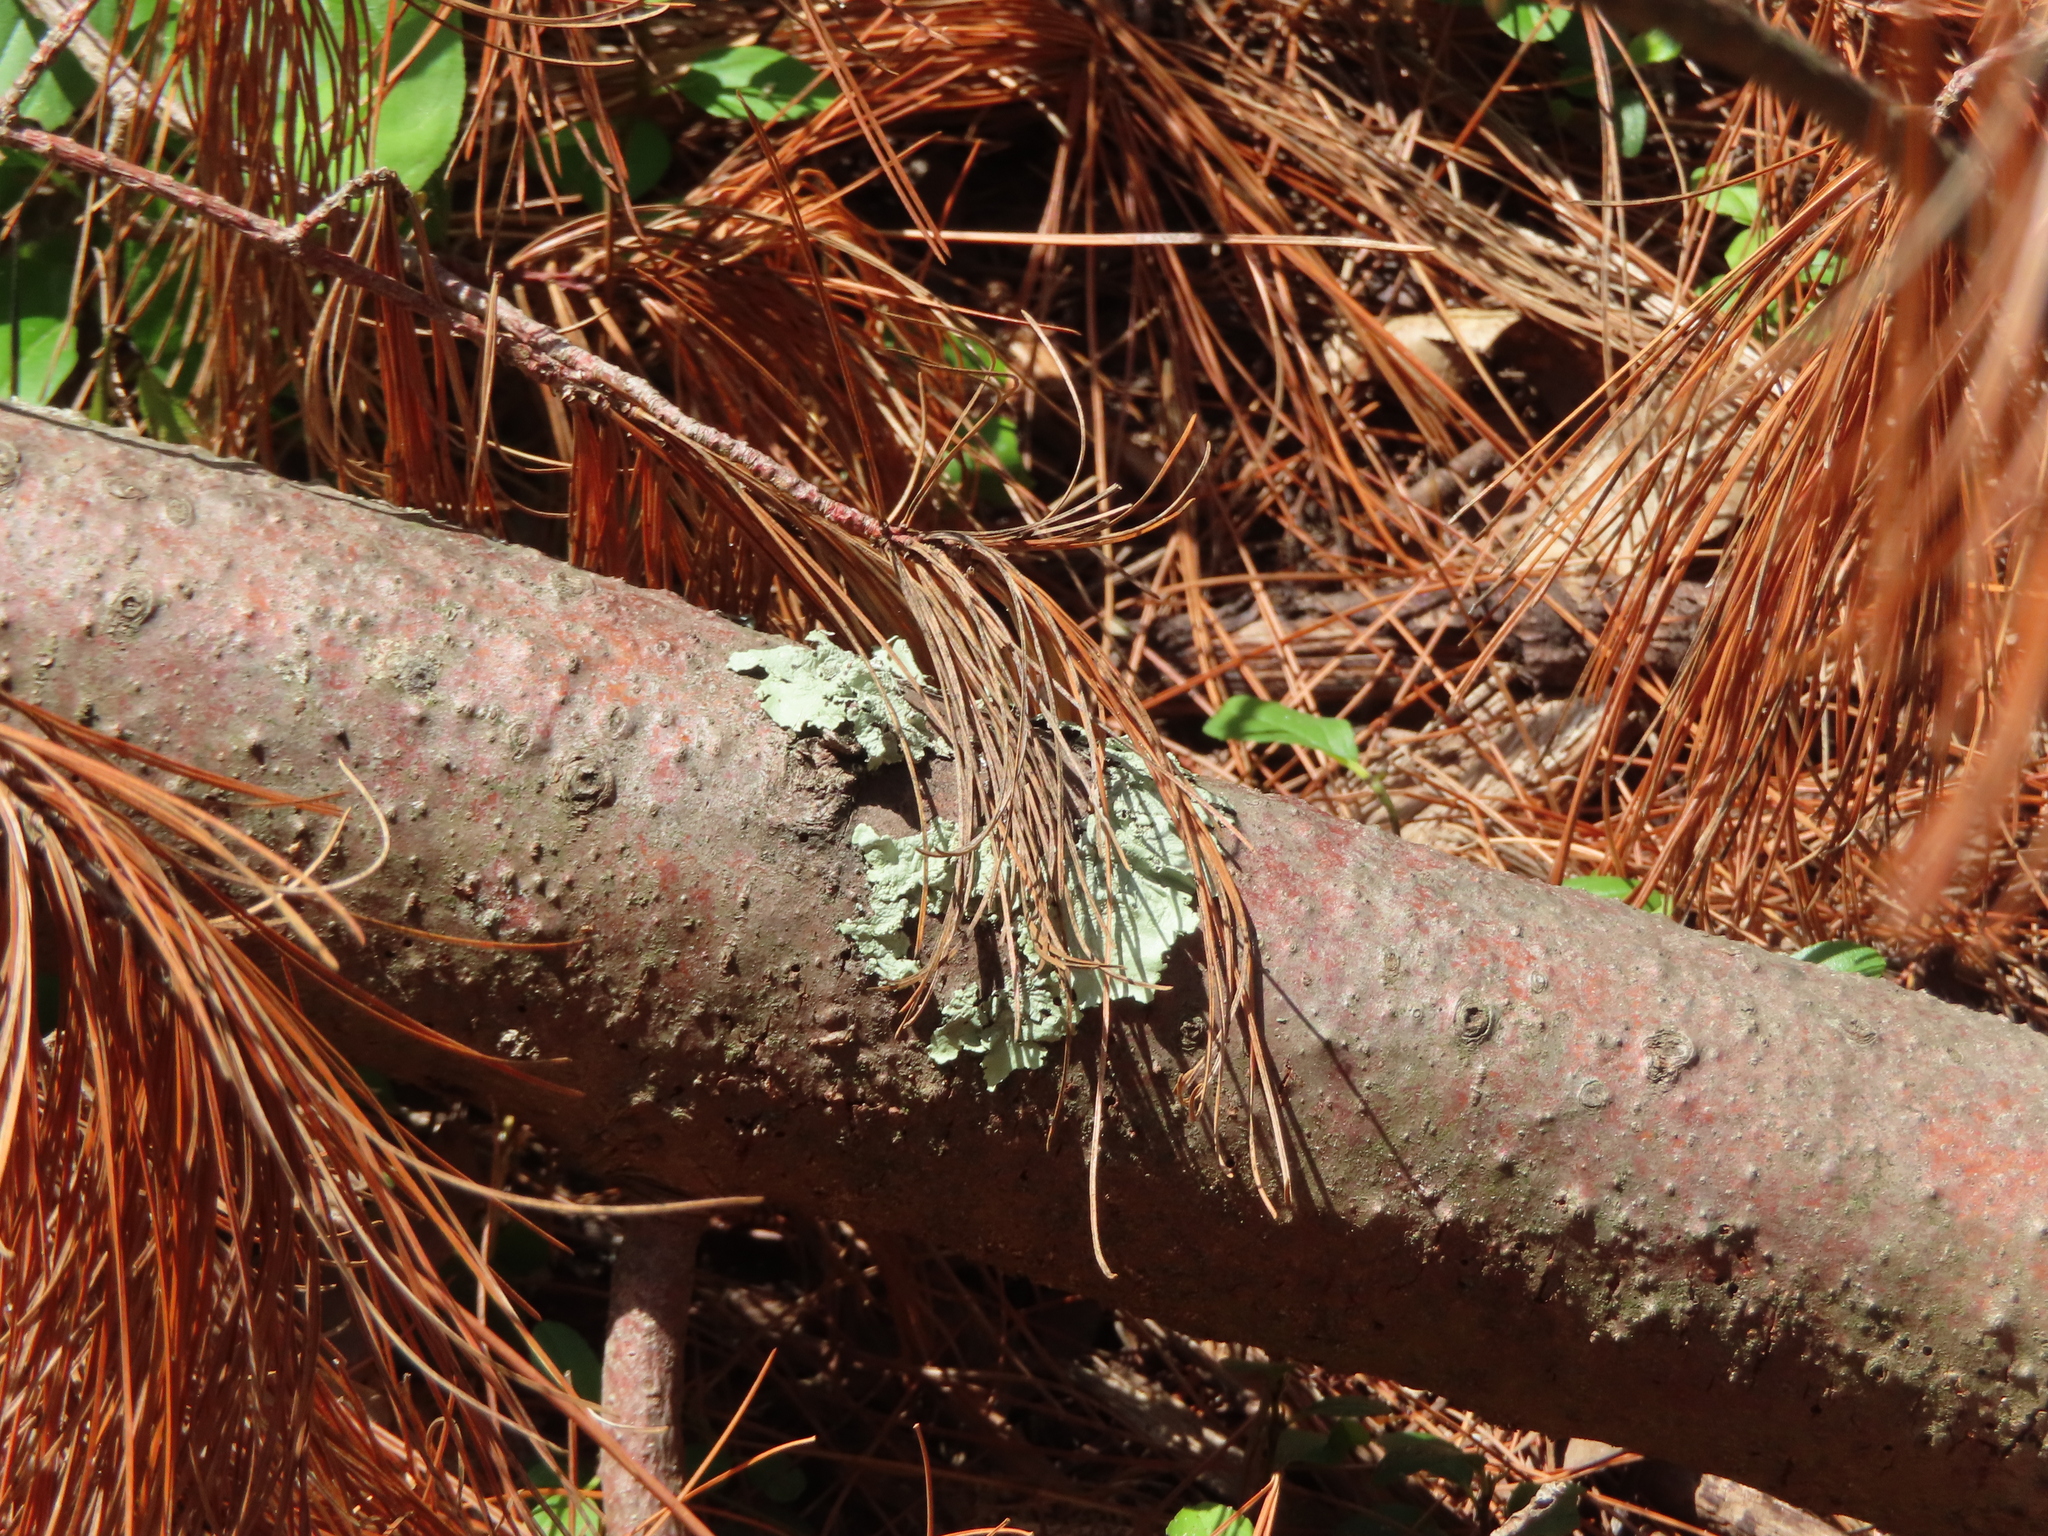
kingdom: Fungi
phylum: Ascomycota
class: Lecanoromycetes
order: Lecanorales
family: Parmeliaceae
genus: Flavoparmelia
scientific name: Flavoparmelia caperata
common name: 40-mile per hour lichen
